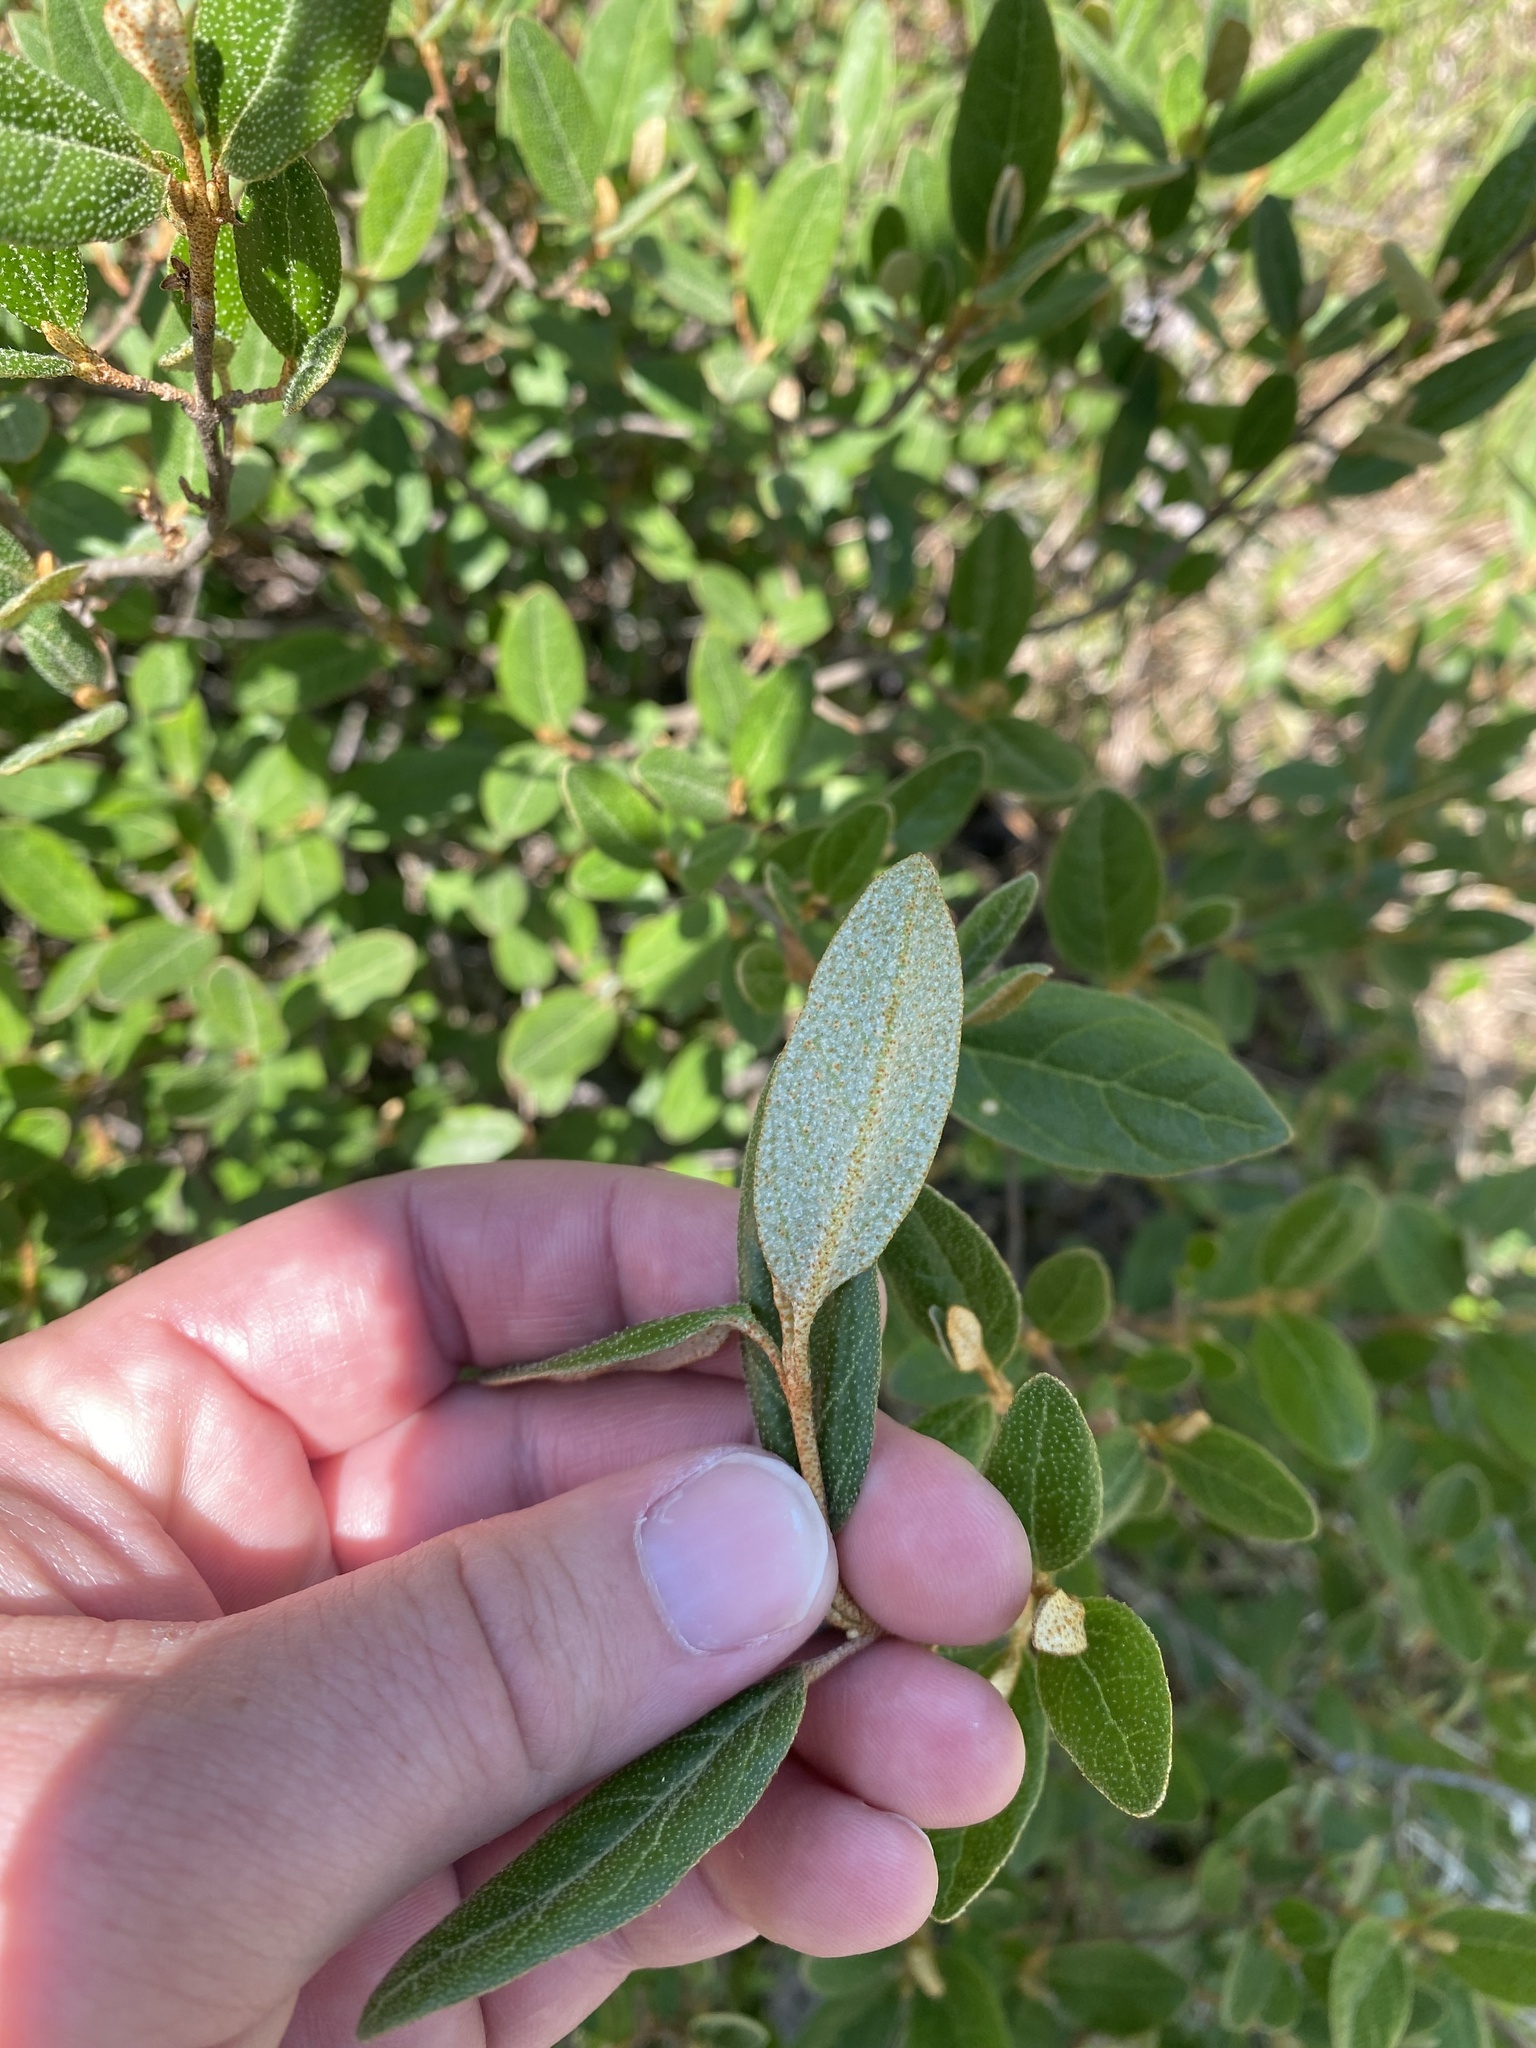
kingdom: Plantae
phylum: Tracheophyta
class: Magnoliopsida
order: Rosales
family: Elaeagnaceae
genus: Shepherdia
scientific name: Shepherdia canadensis
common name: Soapberry
